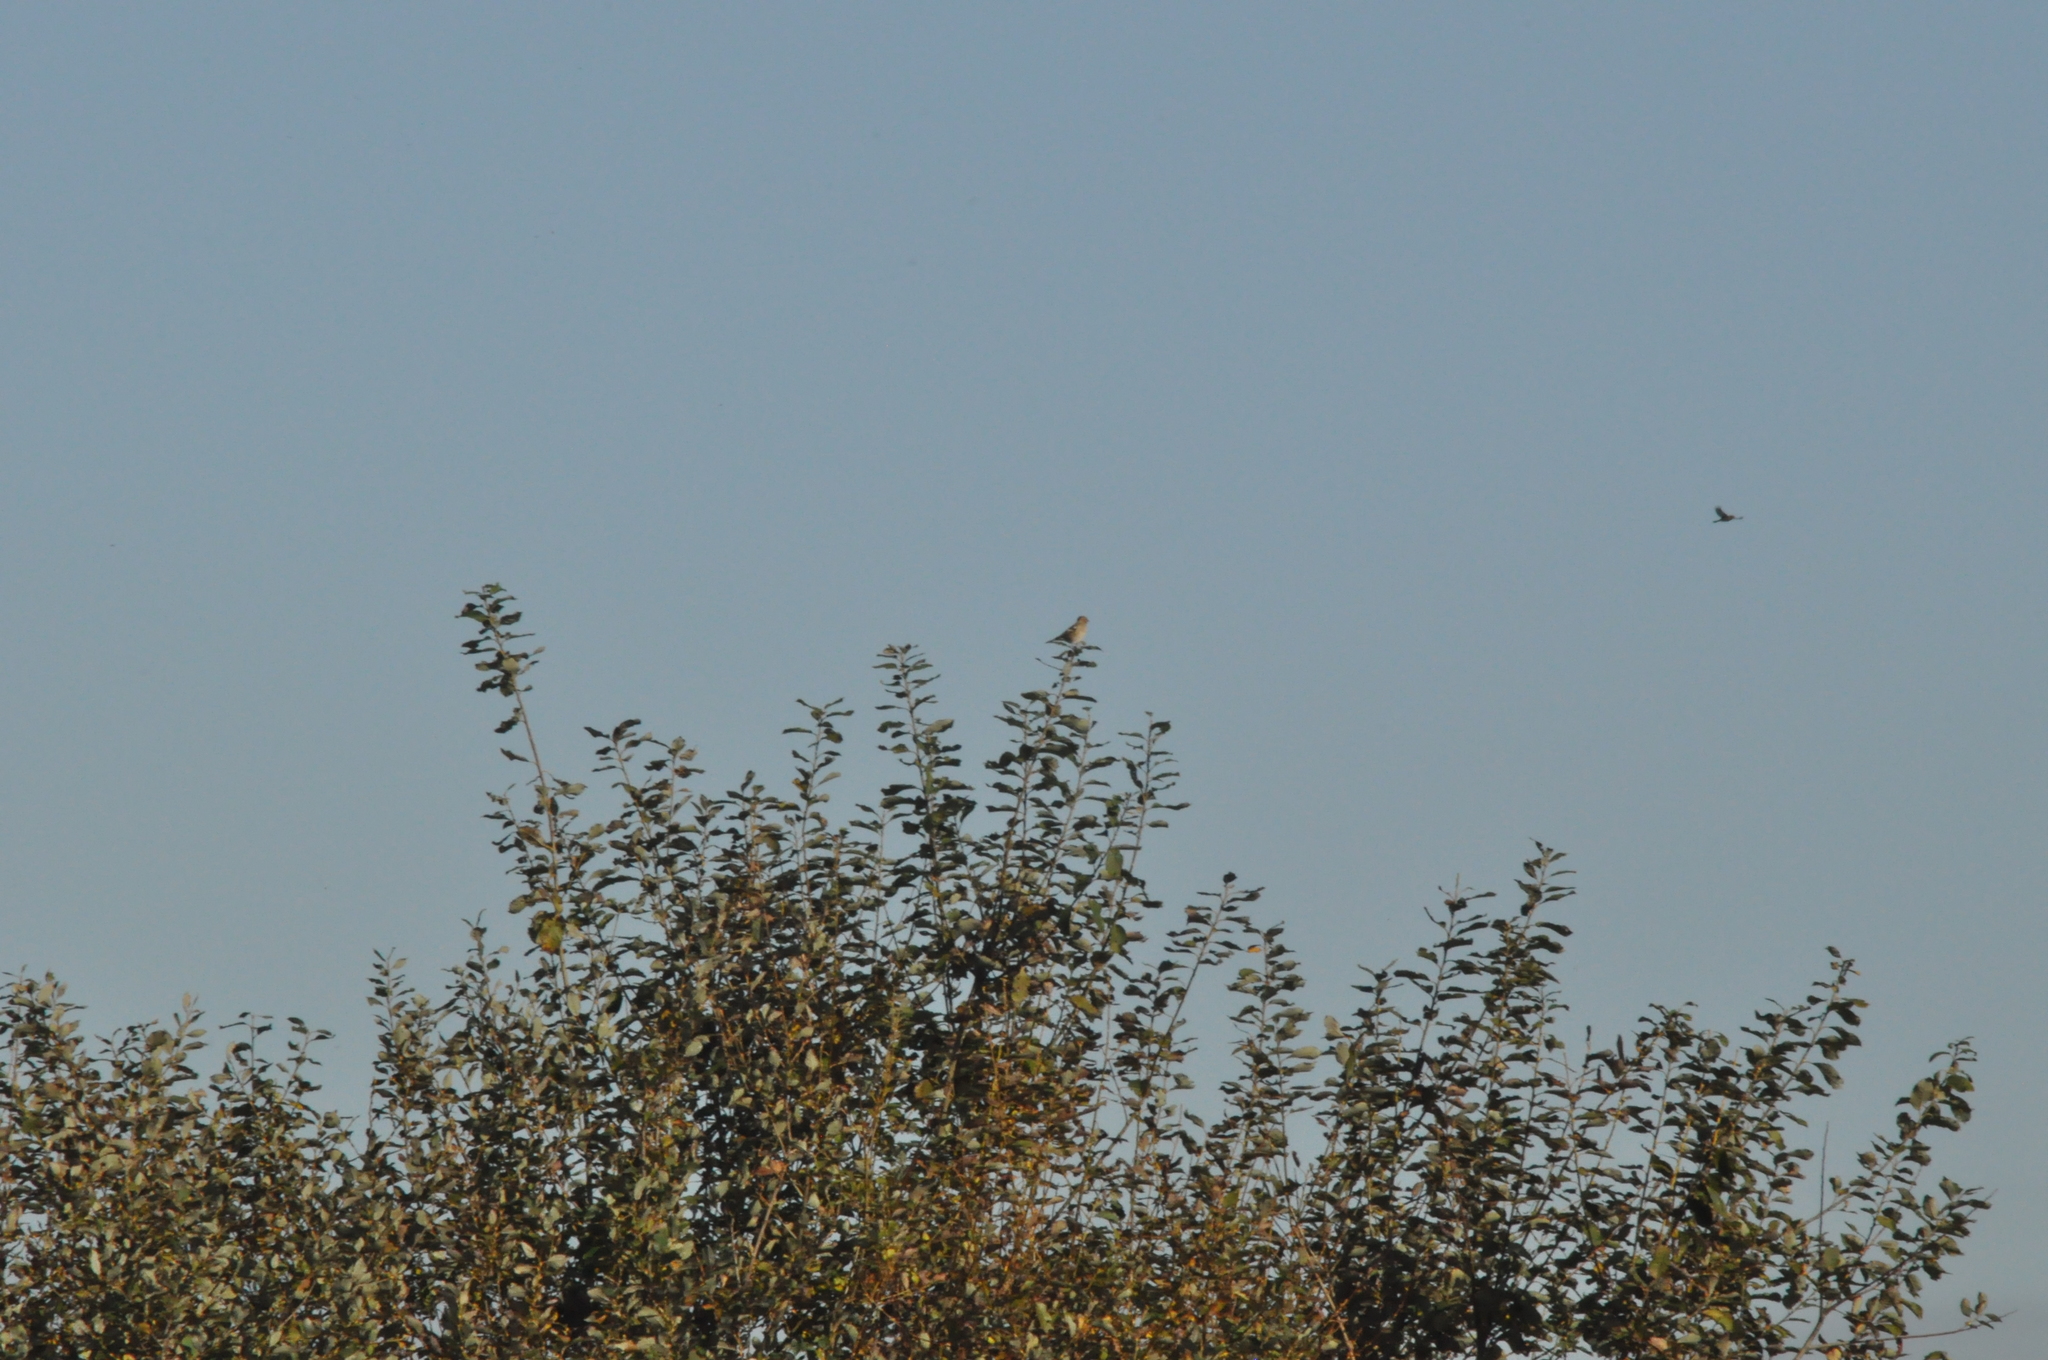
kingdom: Animalia
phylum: Chordata
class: Aves
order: Passeriformes
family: Fringillidae
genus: Fringilla
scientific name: Fringilla coelebs
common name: Common chaffinch
